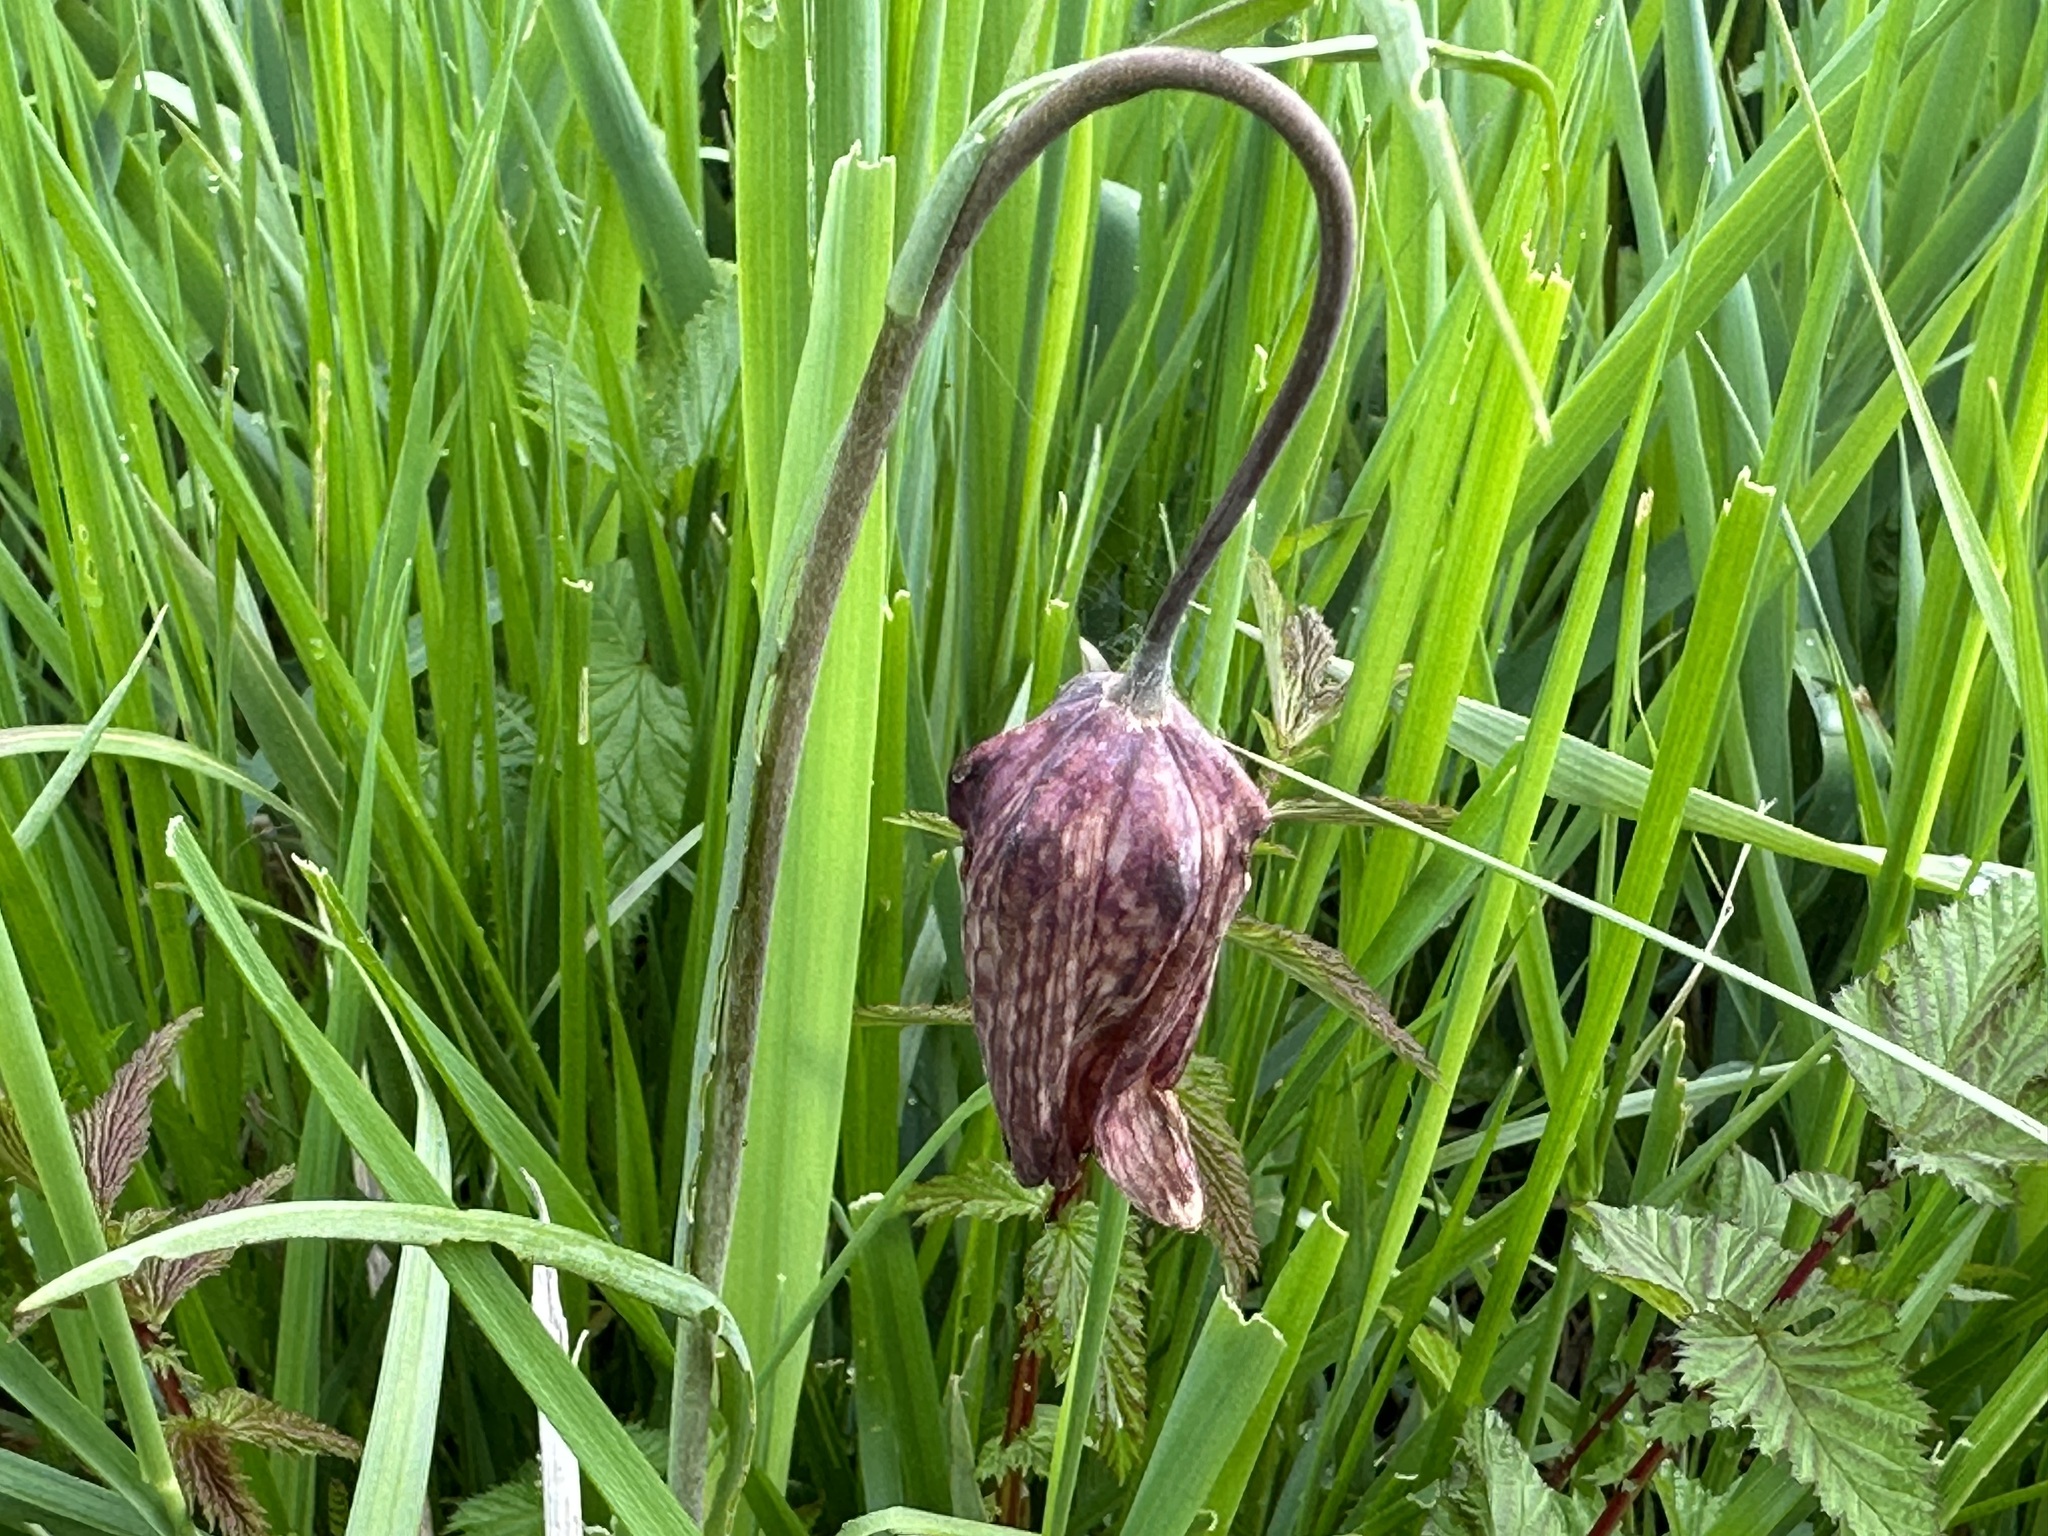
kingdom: Plantae
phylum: Tracheophyta
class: Liliopsida
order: Liliales
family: Liliaceae
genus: Fritillaria
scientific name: Fritillaria meleagris
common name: Fritillary
